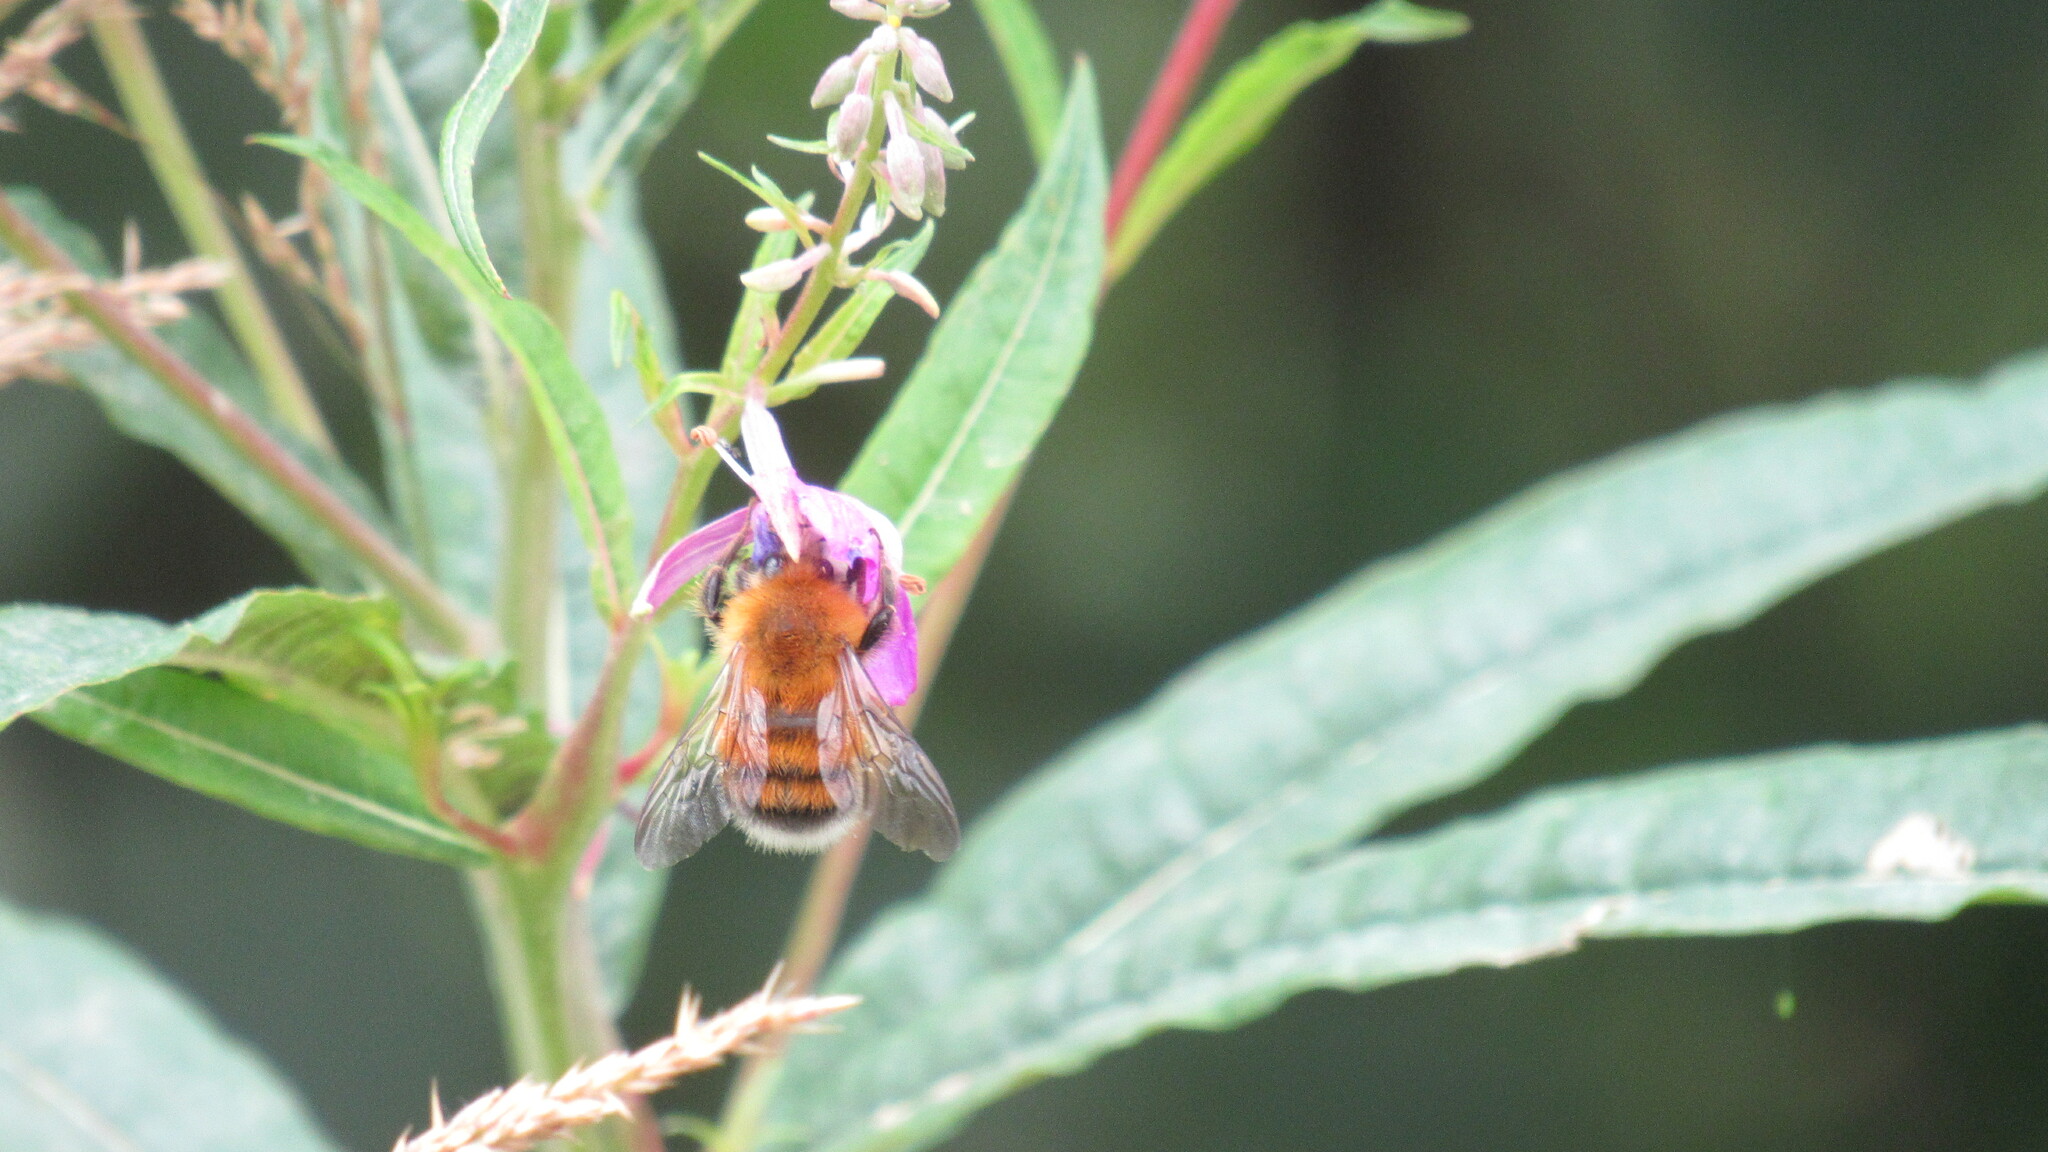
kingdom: Animalia
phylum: Arthropoda
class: Insecta
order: Hymenoptera
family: Apidae
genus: Bombus
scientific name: Bombus hypnorum
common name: New garden bumblebee
